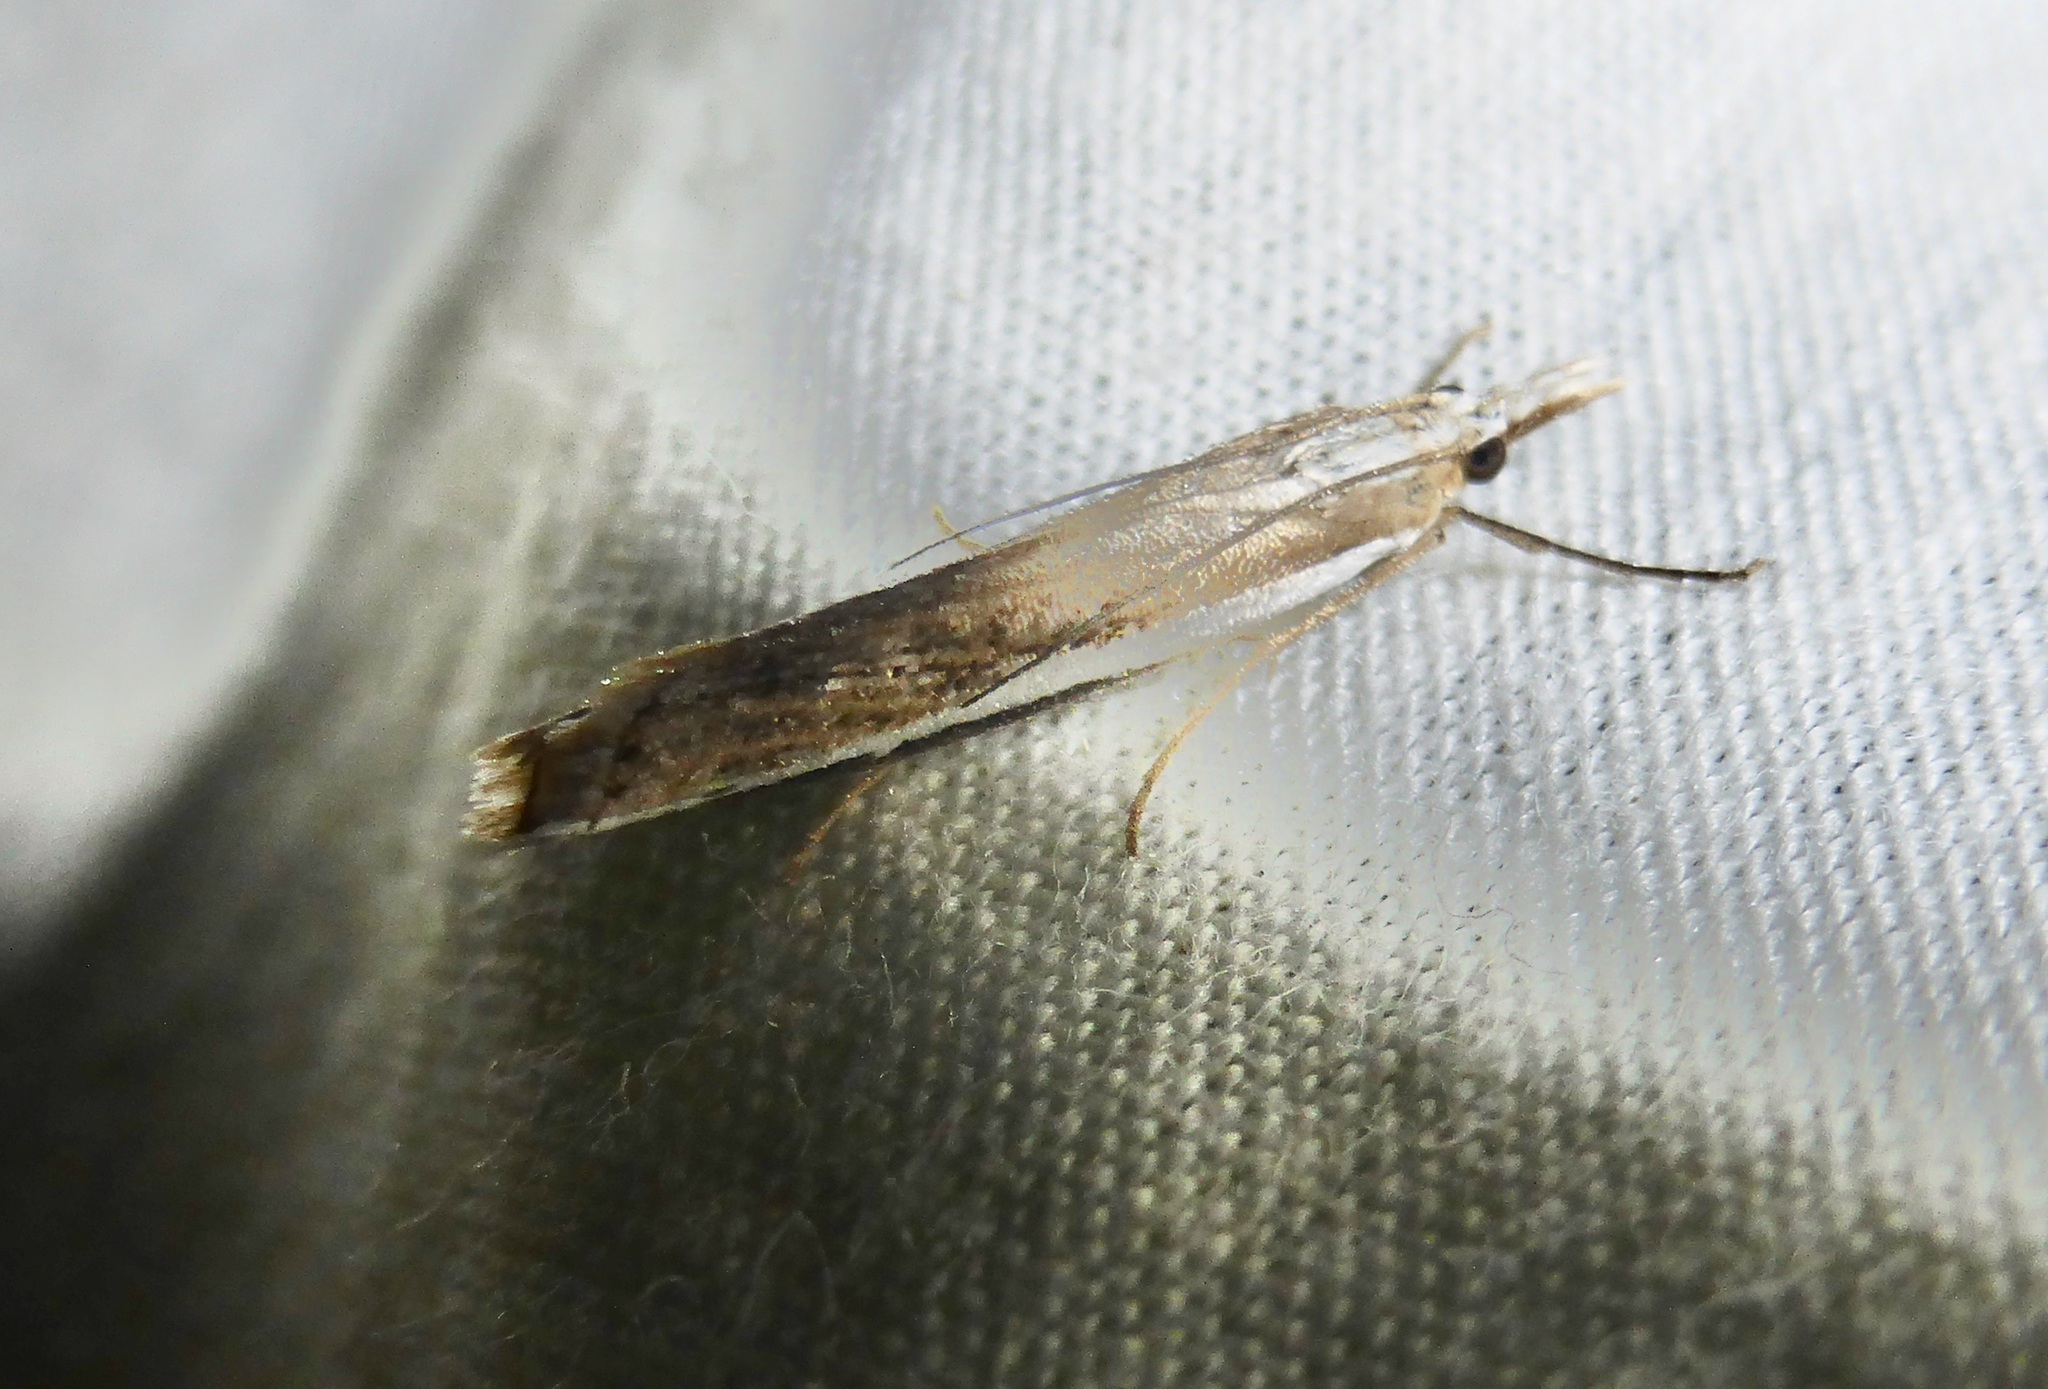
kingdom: Animalia
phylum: Arthropoda
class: Insecta
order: Lepidoptera
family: Crambidae
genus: Orocrambus
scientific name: Orocrambus flexuosellus
